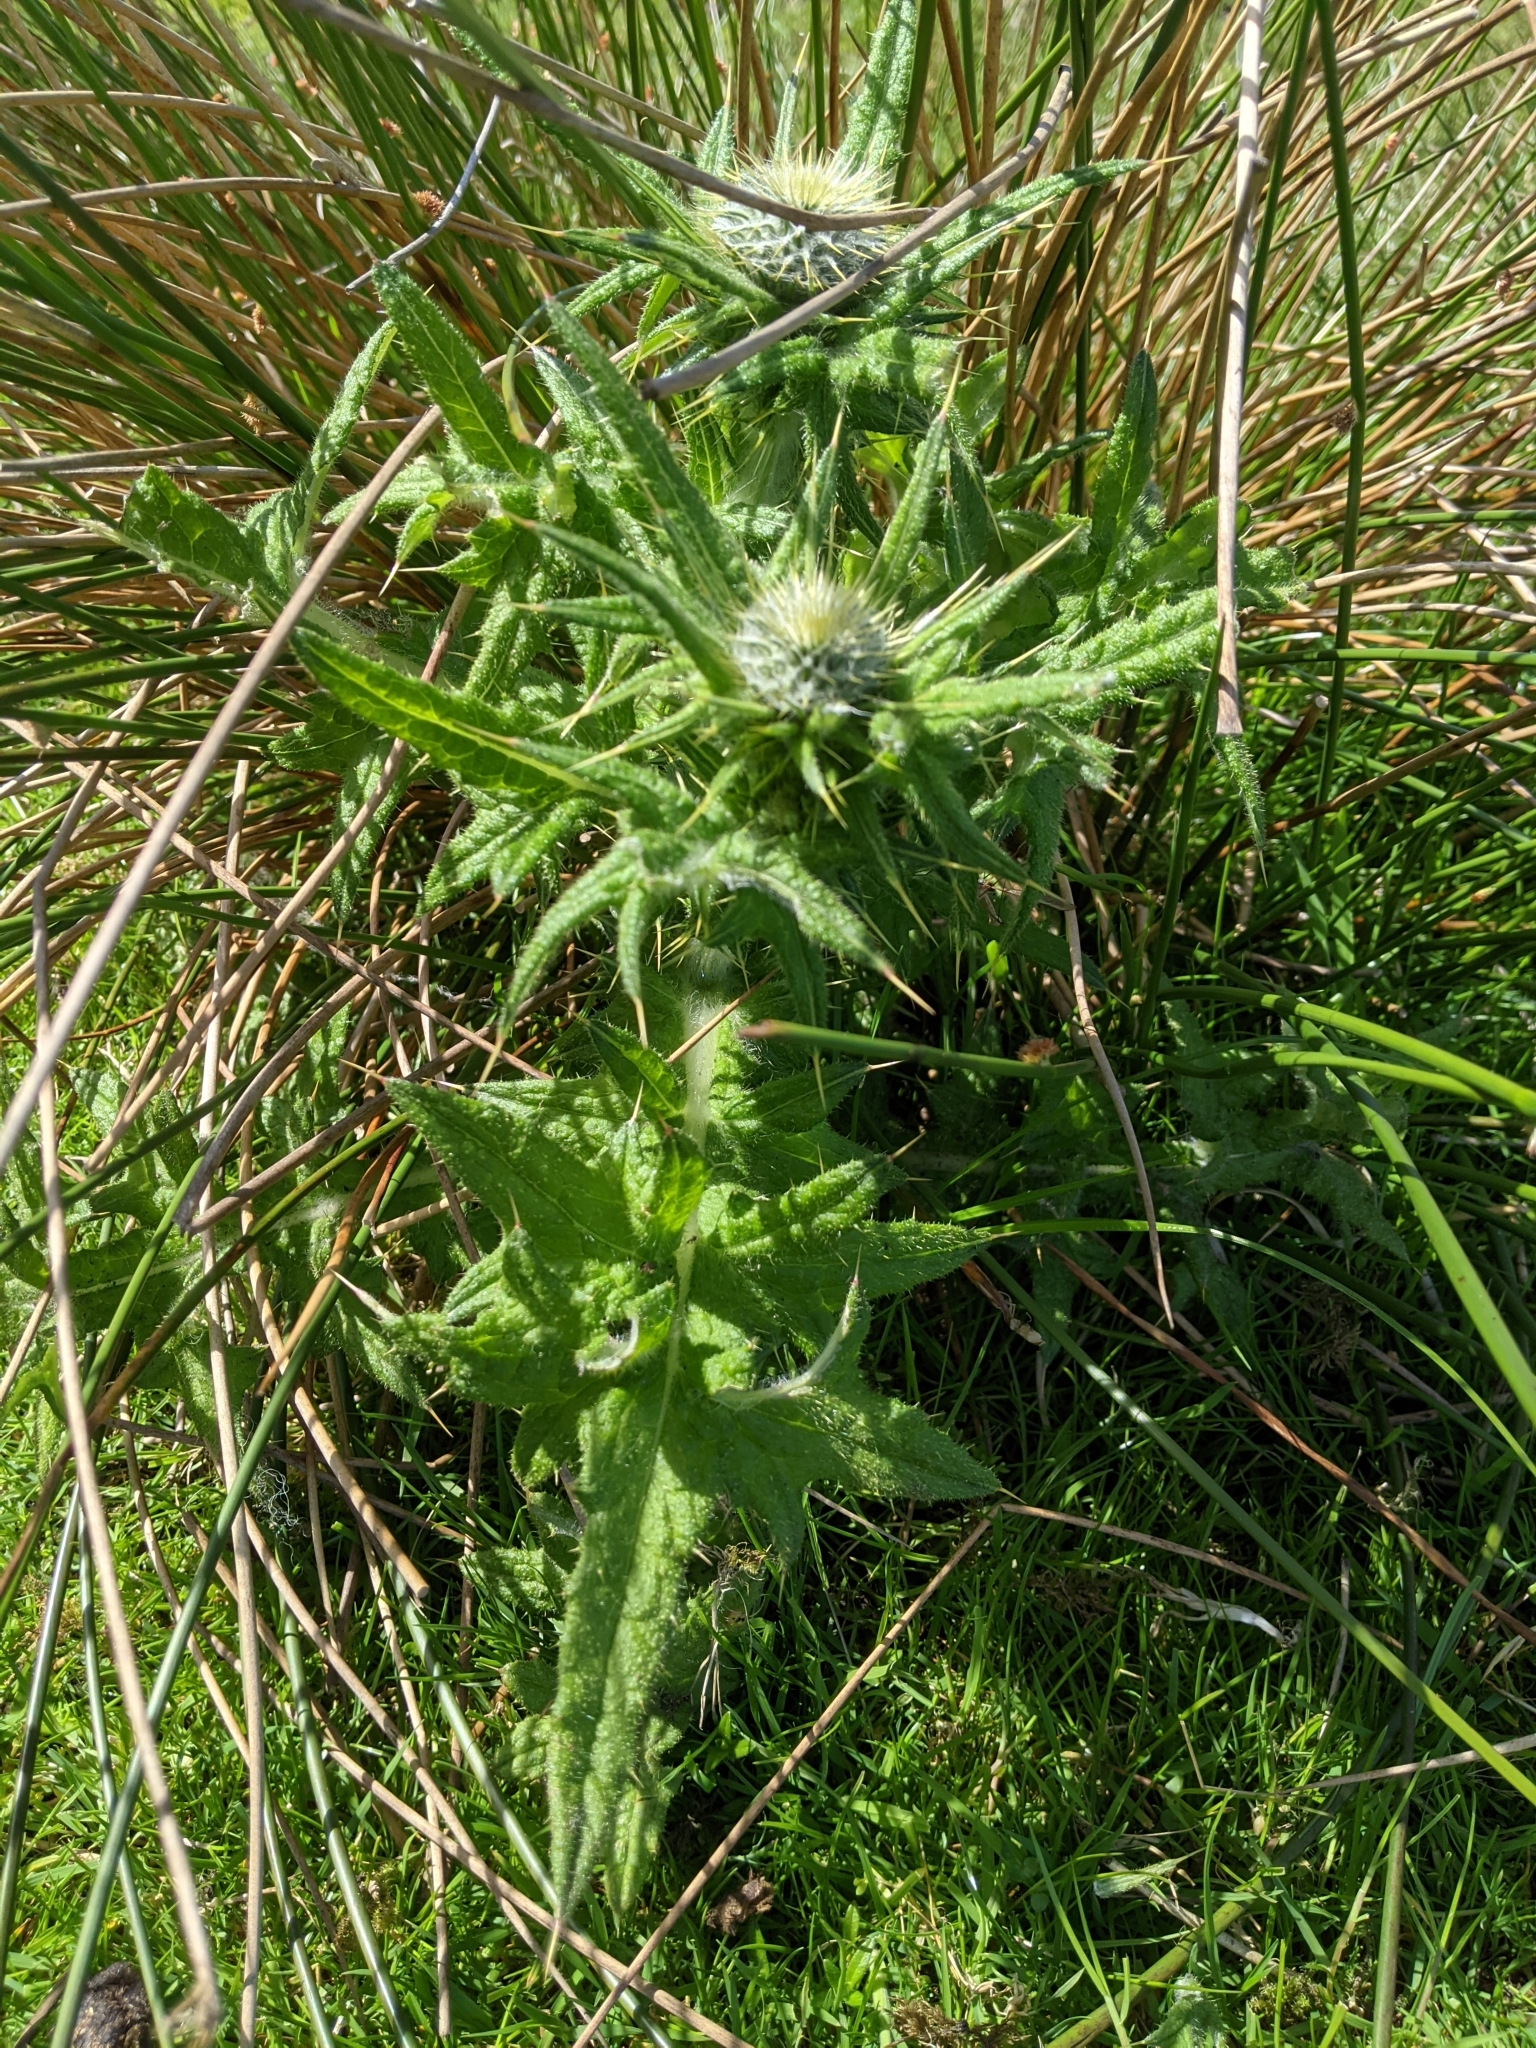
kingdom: Plantae
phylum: Tracheophyta
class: Magnoliopsida
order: Asterales
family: Asteraceae
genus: Cirsium
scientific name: Cirsium vulgare
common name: Bull thistle
